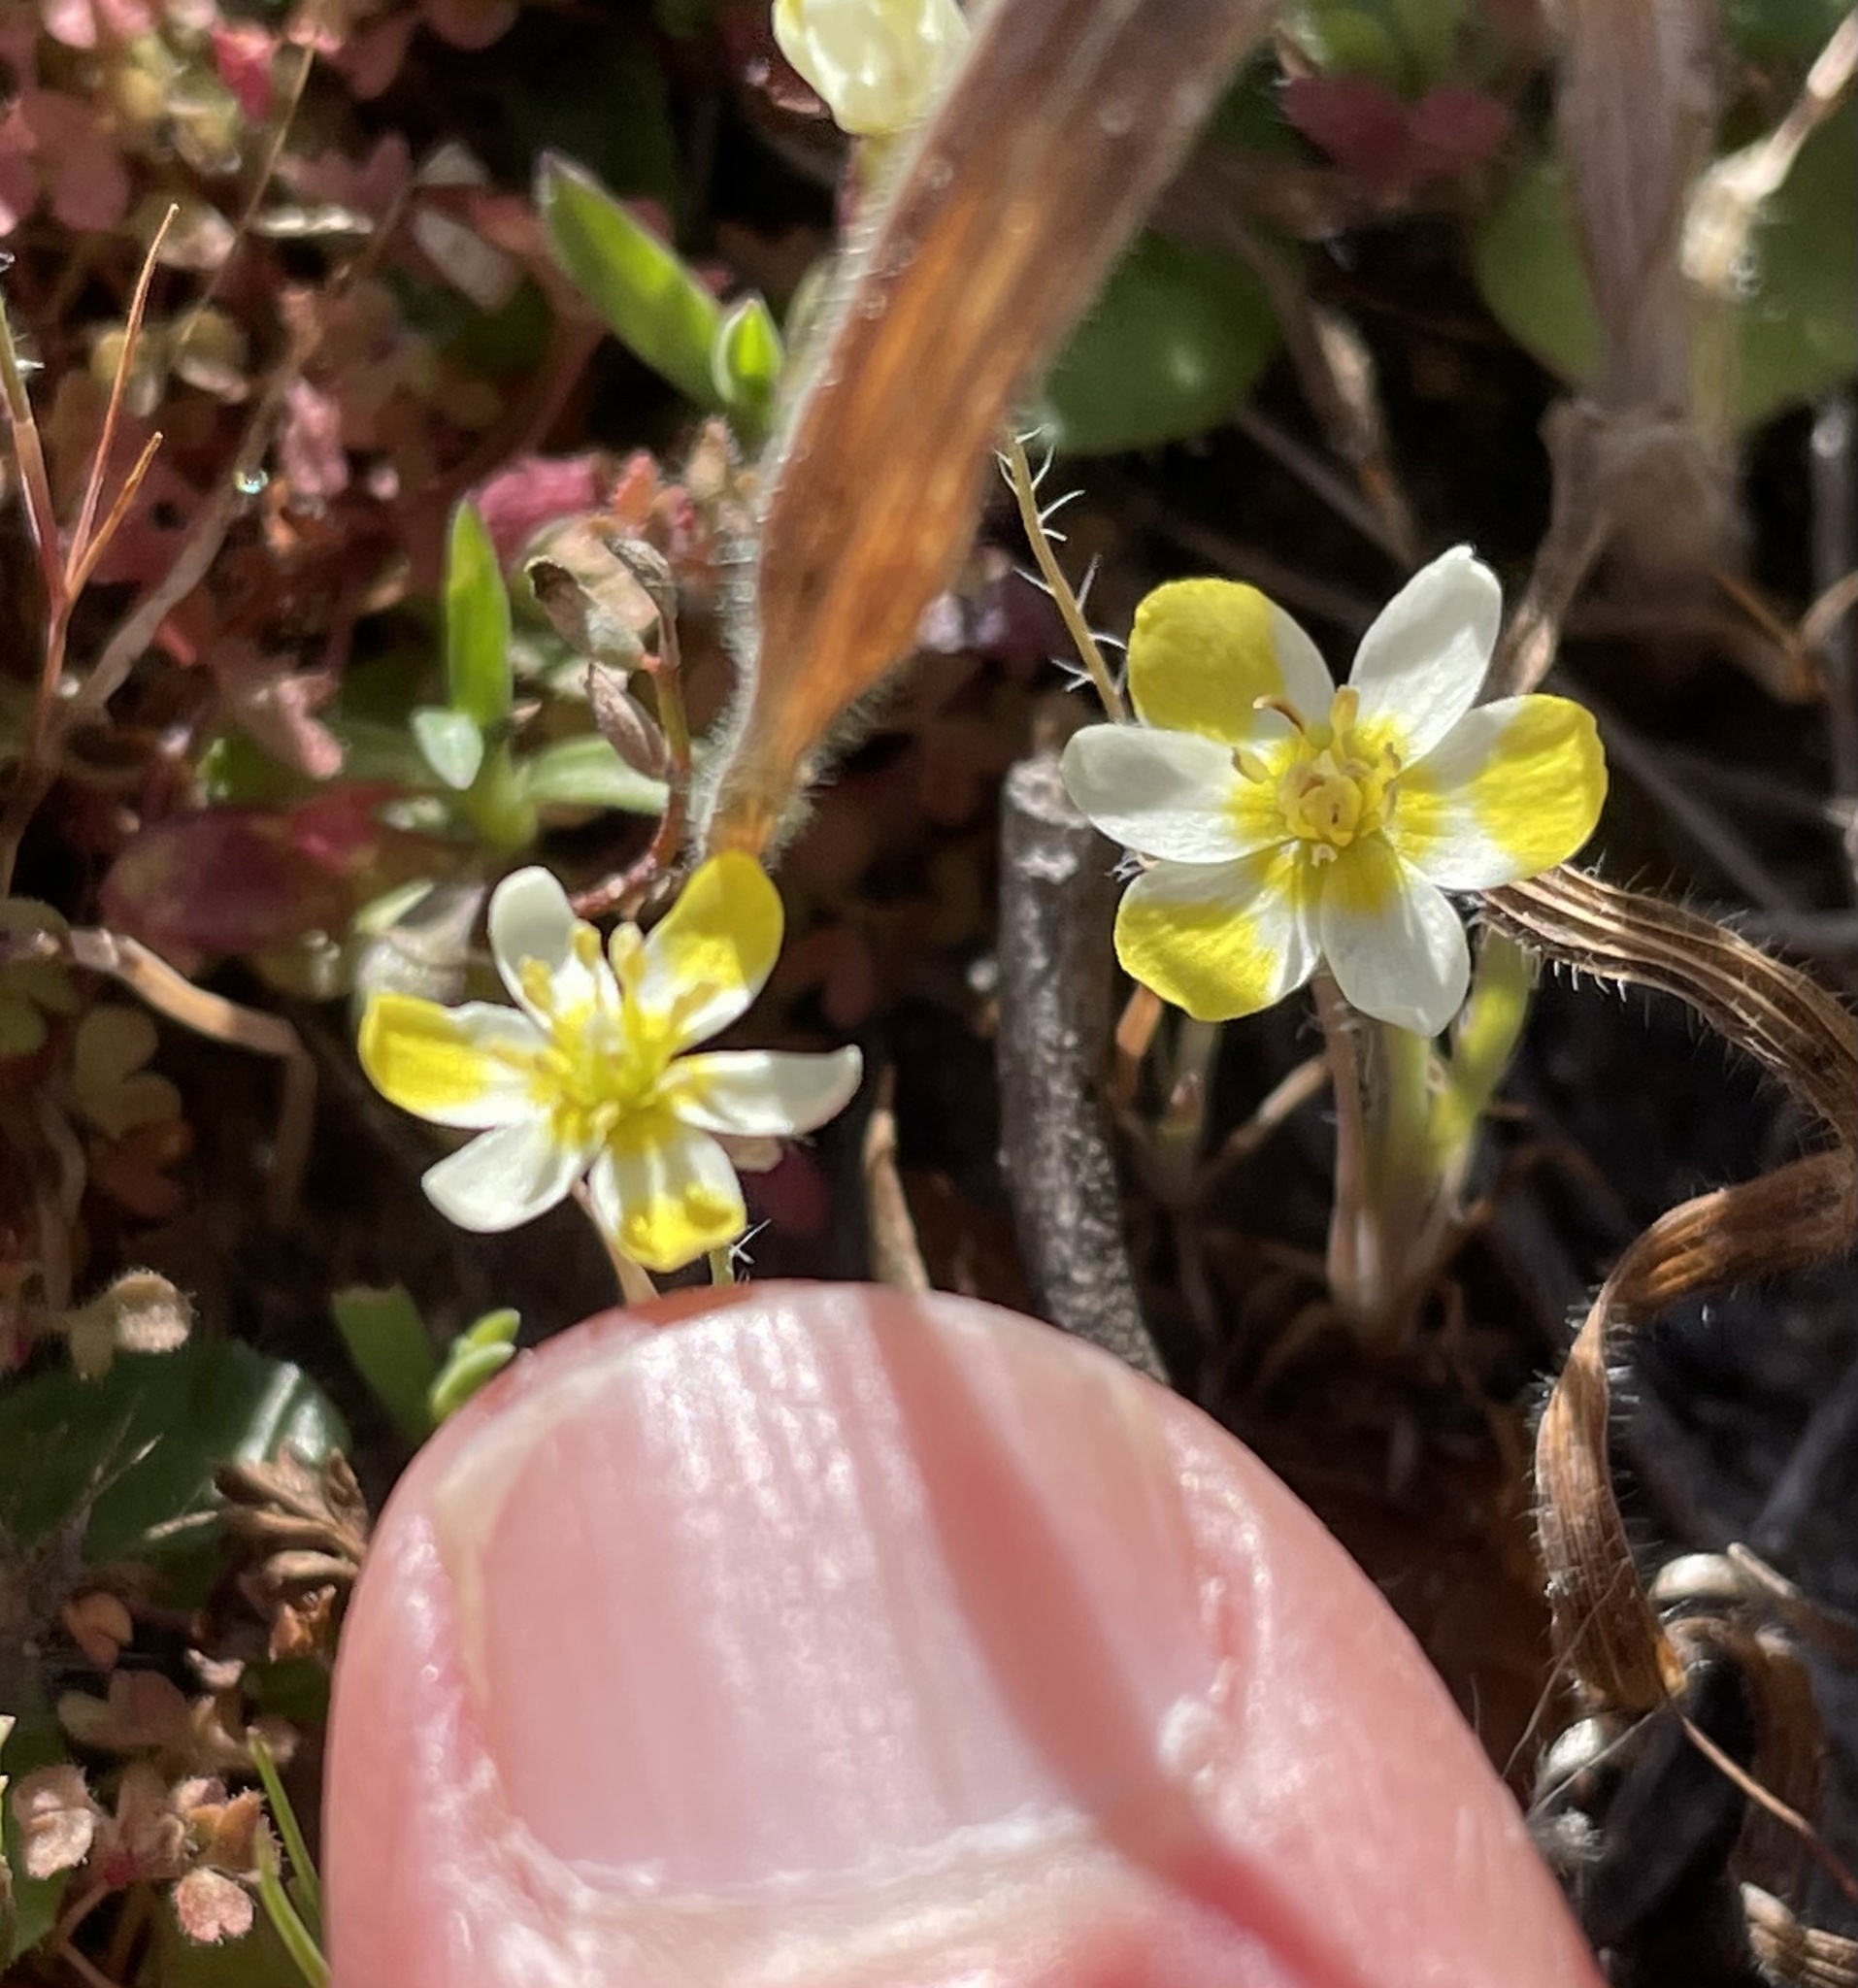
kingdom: Plantae
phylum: Tracheophyta
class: Magnoliopsida
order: Ranunculales
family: Papaveraceae
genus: Platystigma
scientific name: Platystigma lineare
